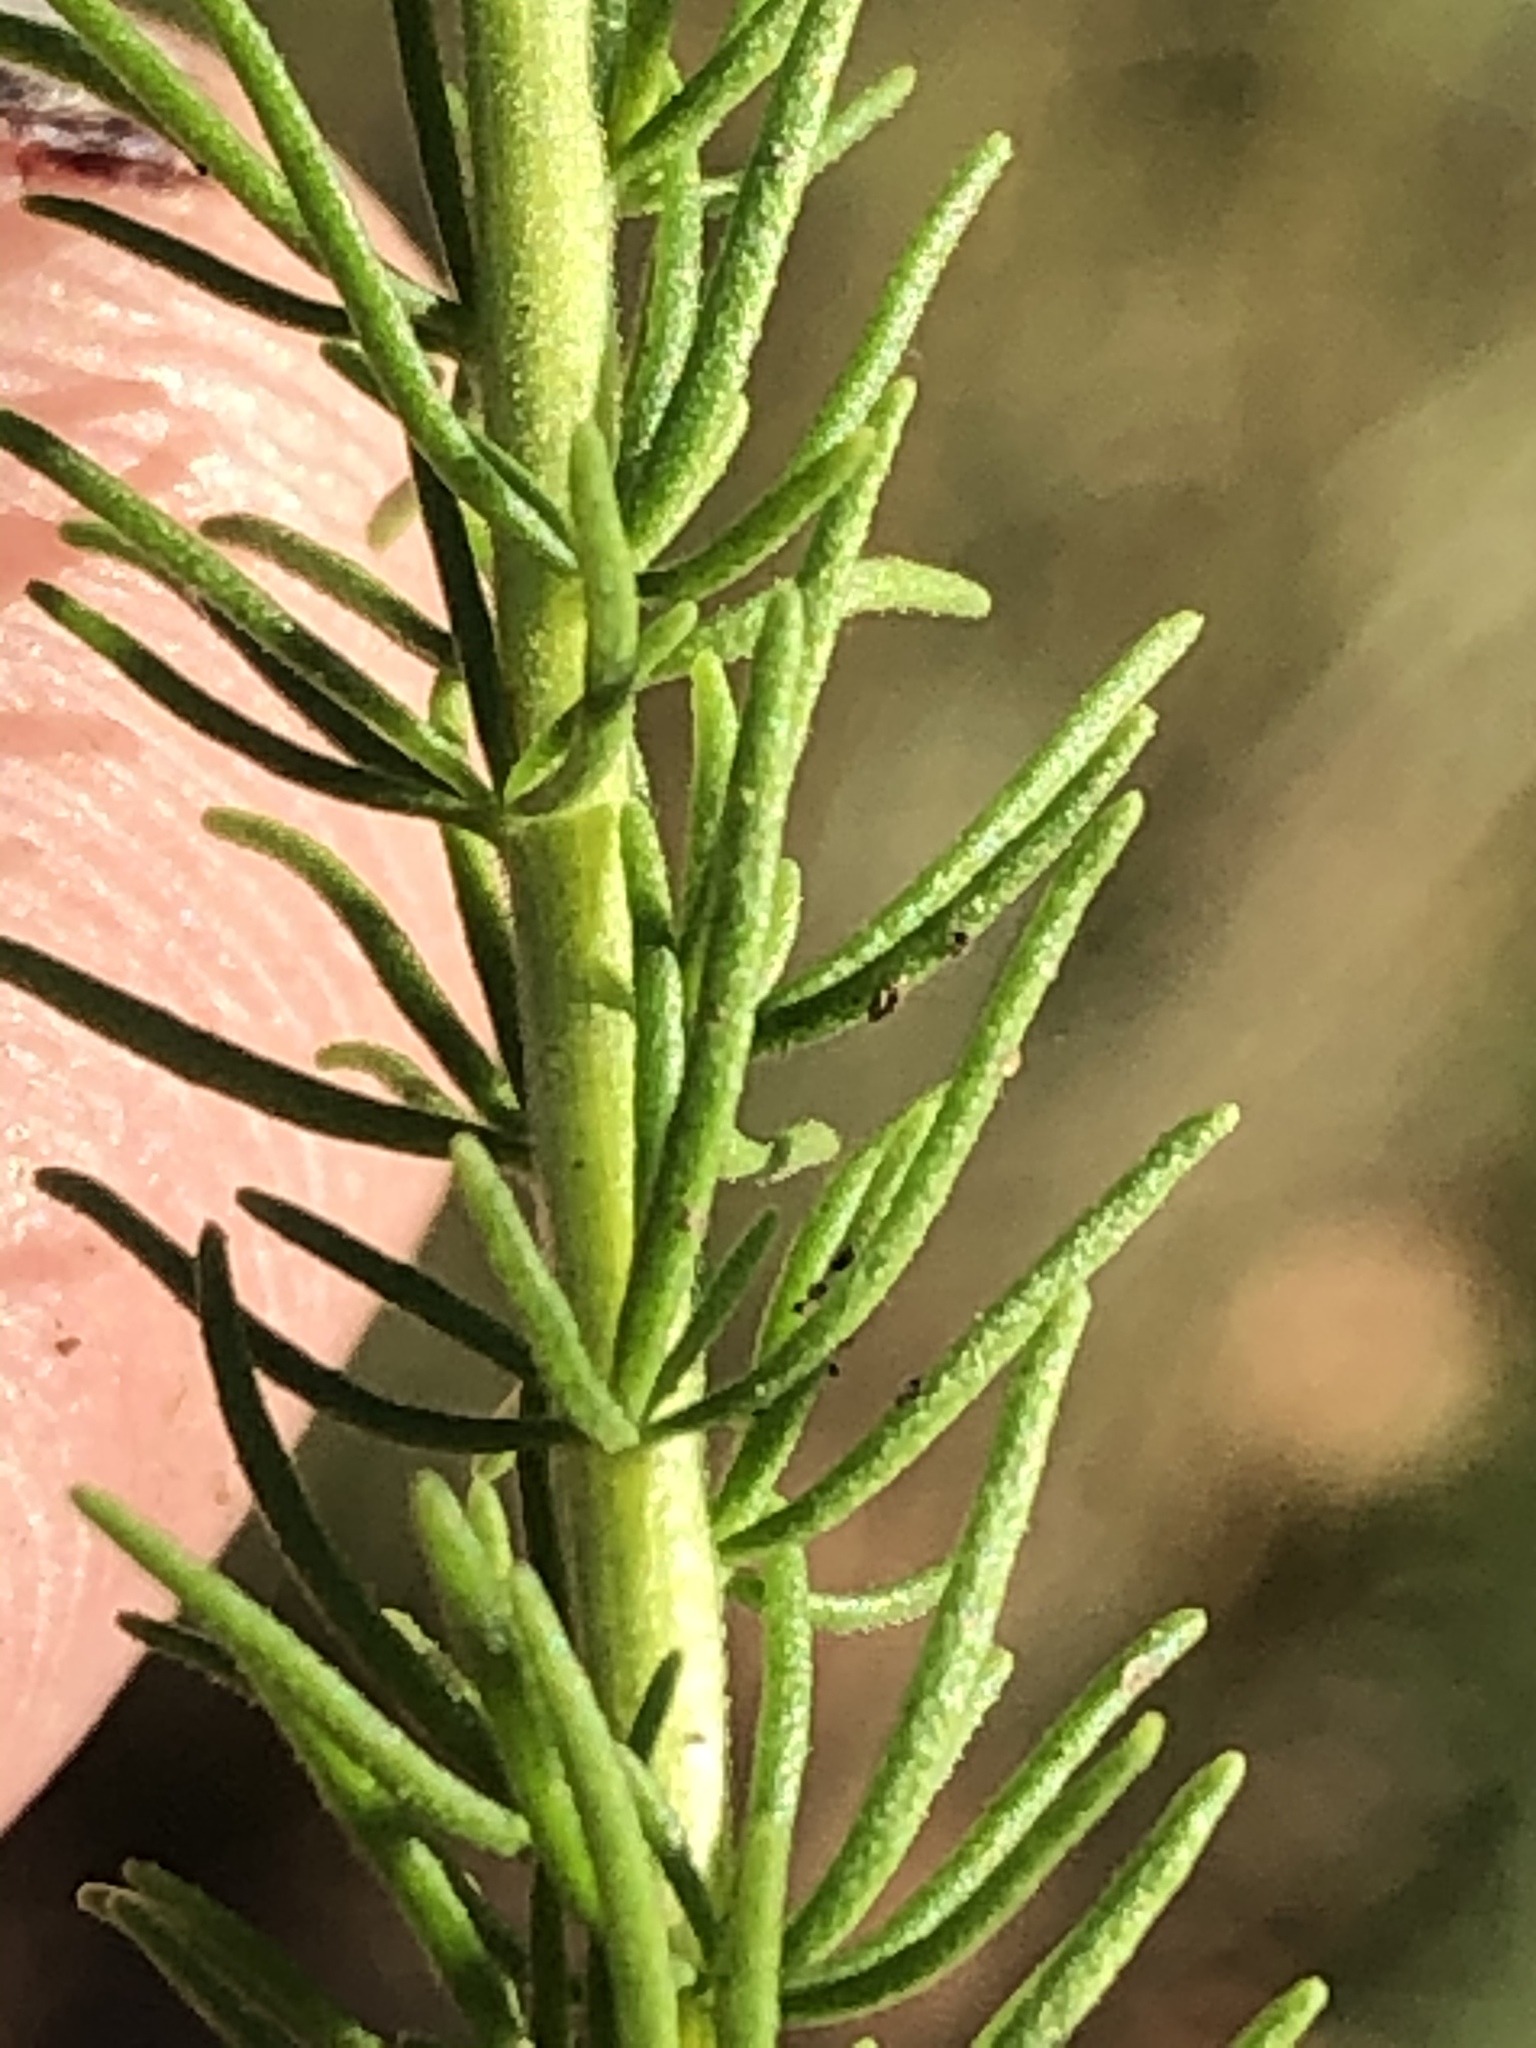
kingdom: Plantae
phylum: Tracheophyta
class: Magnoliopsida
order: Lamiales
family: Scrophulariaceae
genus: Selago
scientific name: Selago corymbosa
